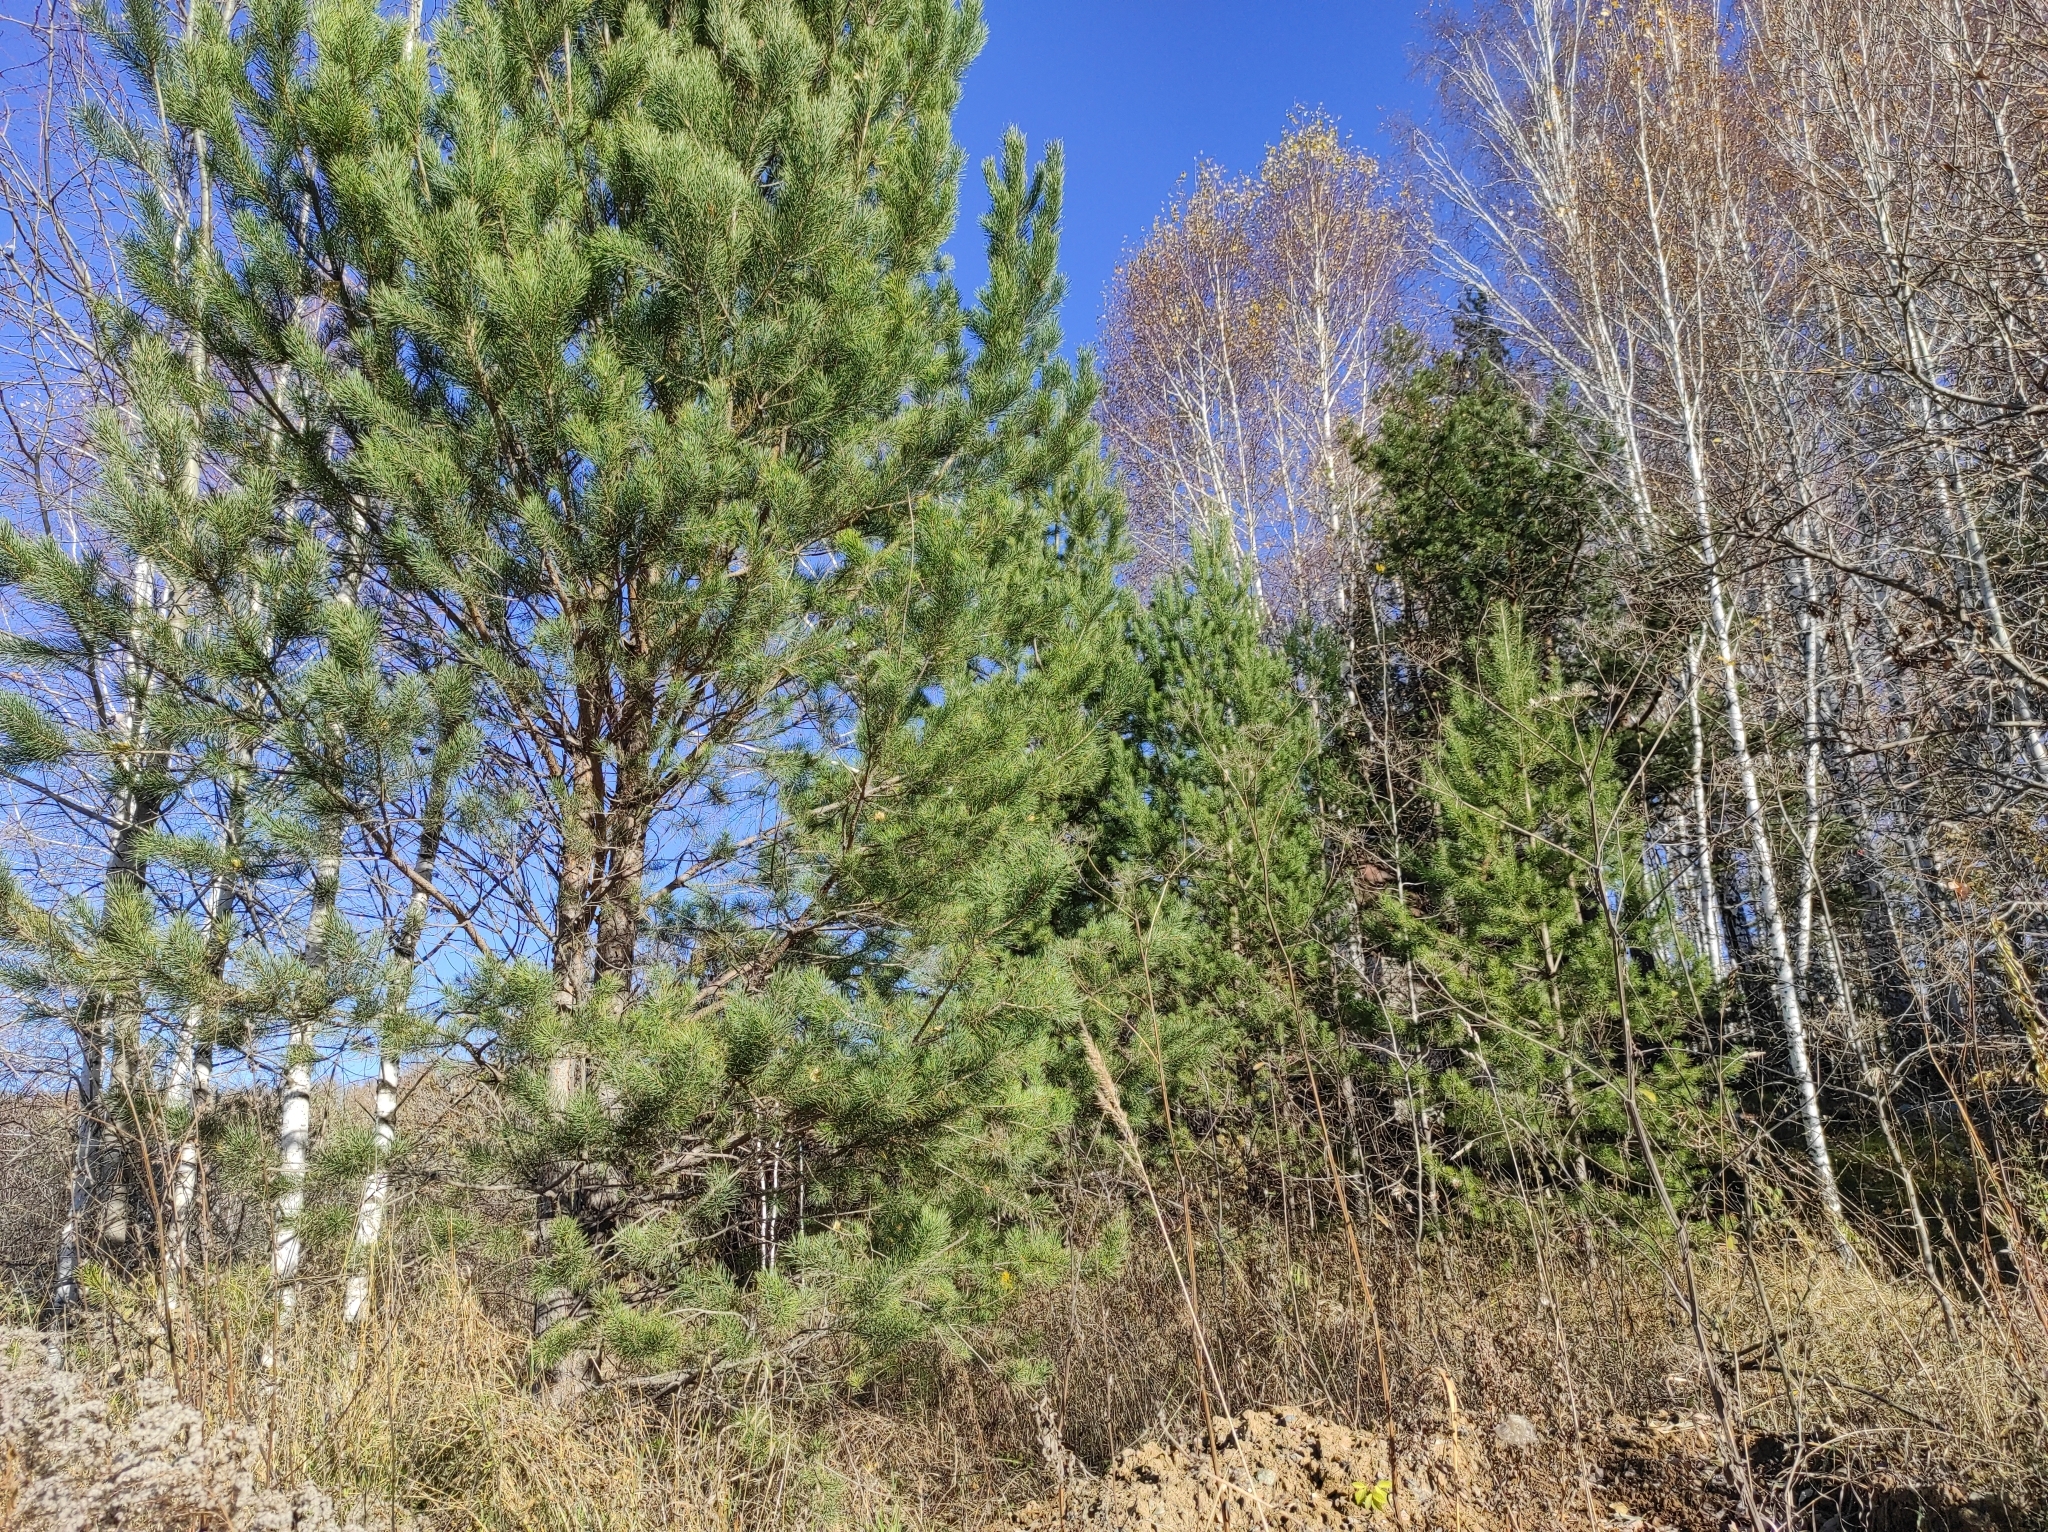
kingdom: Plantae
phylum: Tracheophyta
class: Pinopsida
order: Pinales
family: Pinaceae
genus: Pinus
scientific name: Pinus sylvestris
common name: Scots pine
